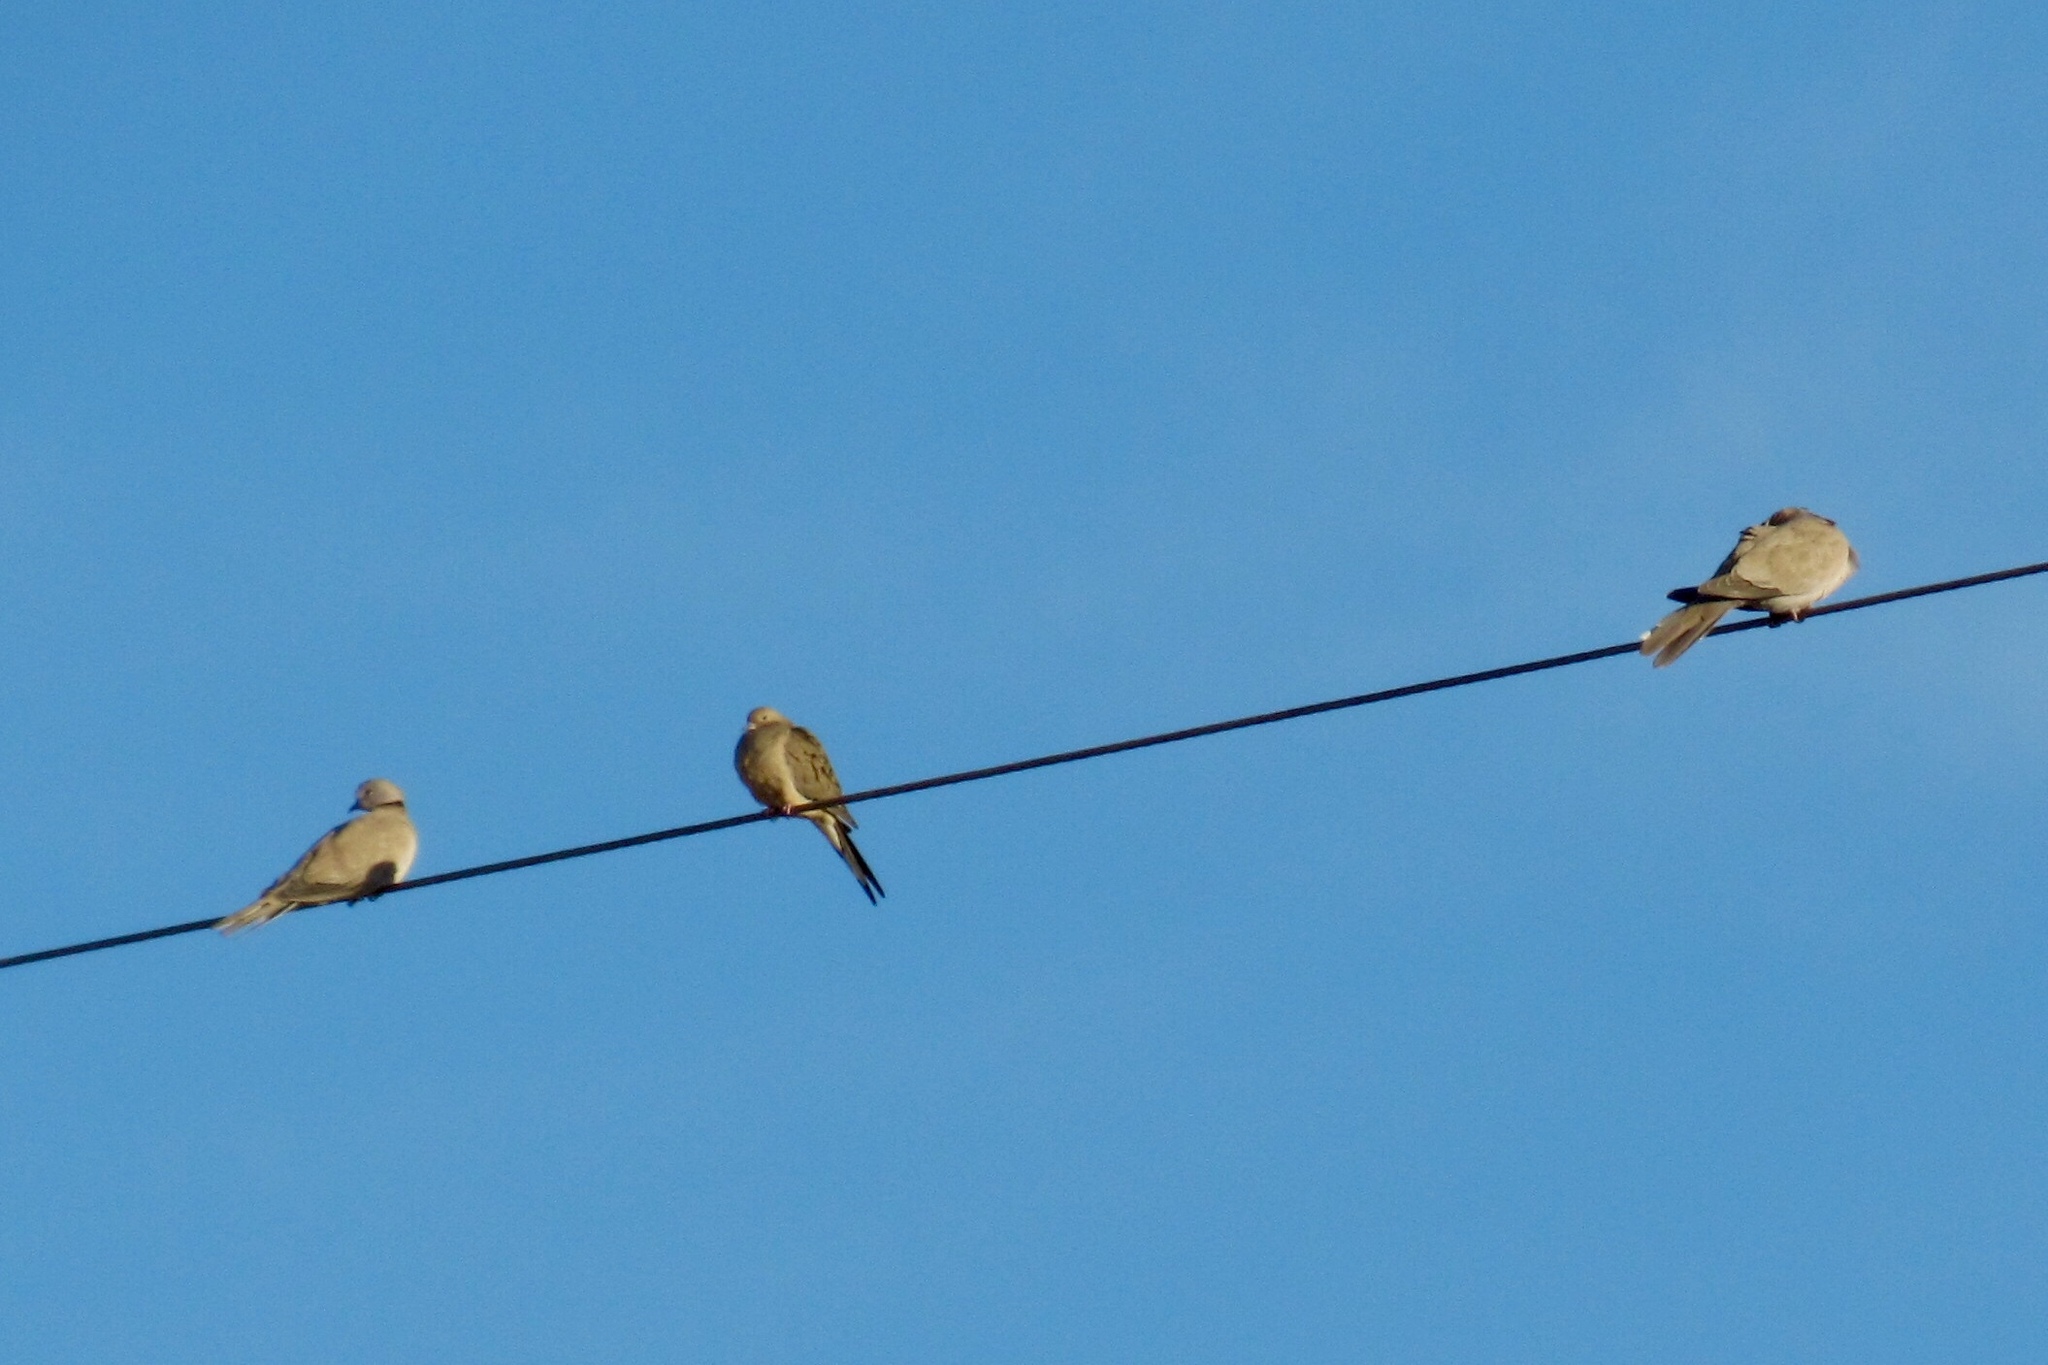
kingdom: Animalia
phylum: Chordata
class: Aves
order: Columbiformes
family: Columbidae
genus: Zenaida
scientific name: Zenaida macroura
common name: Mourning dove
